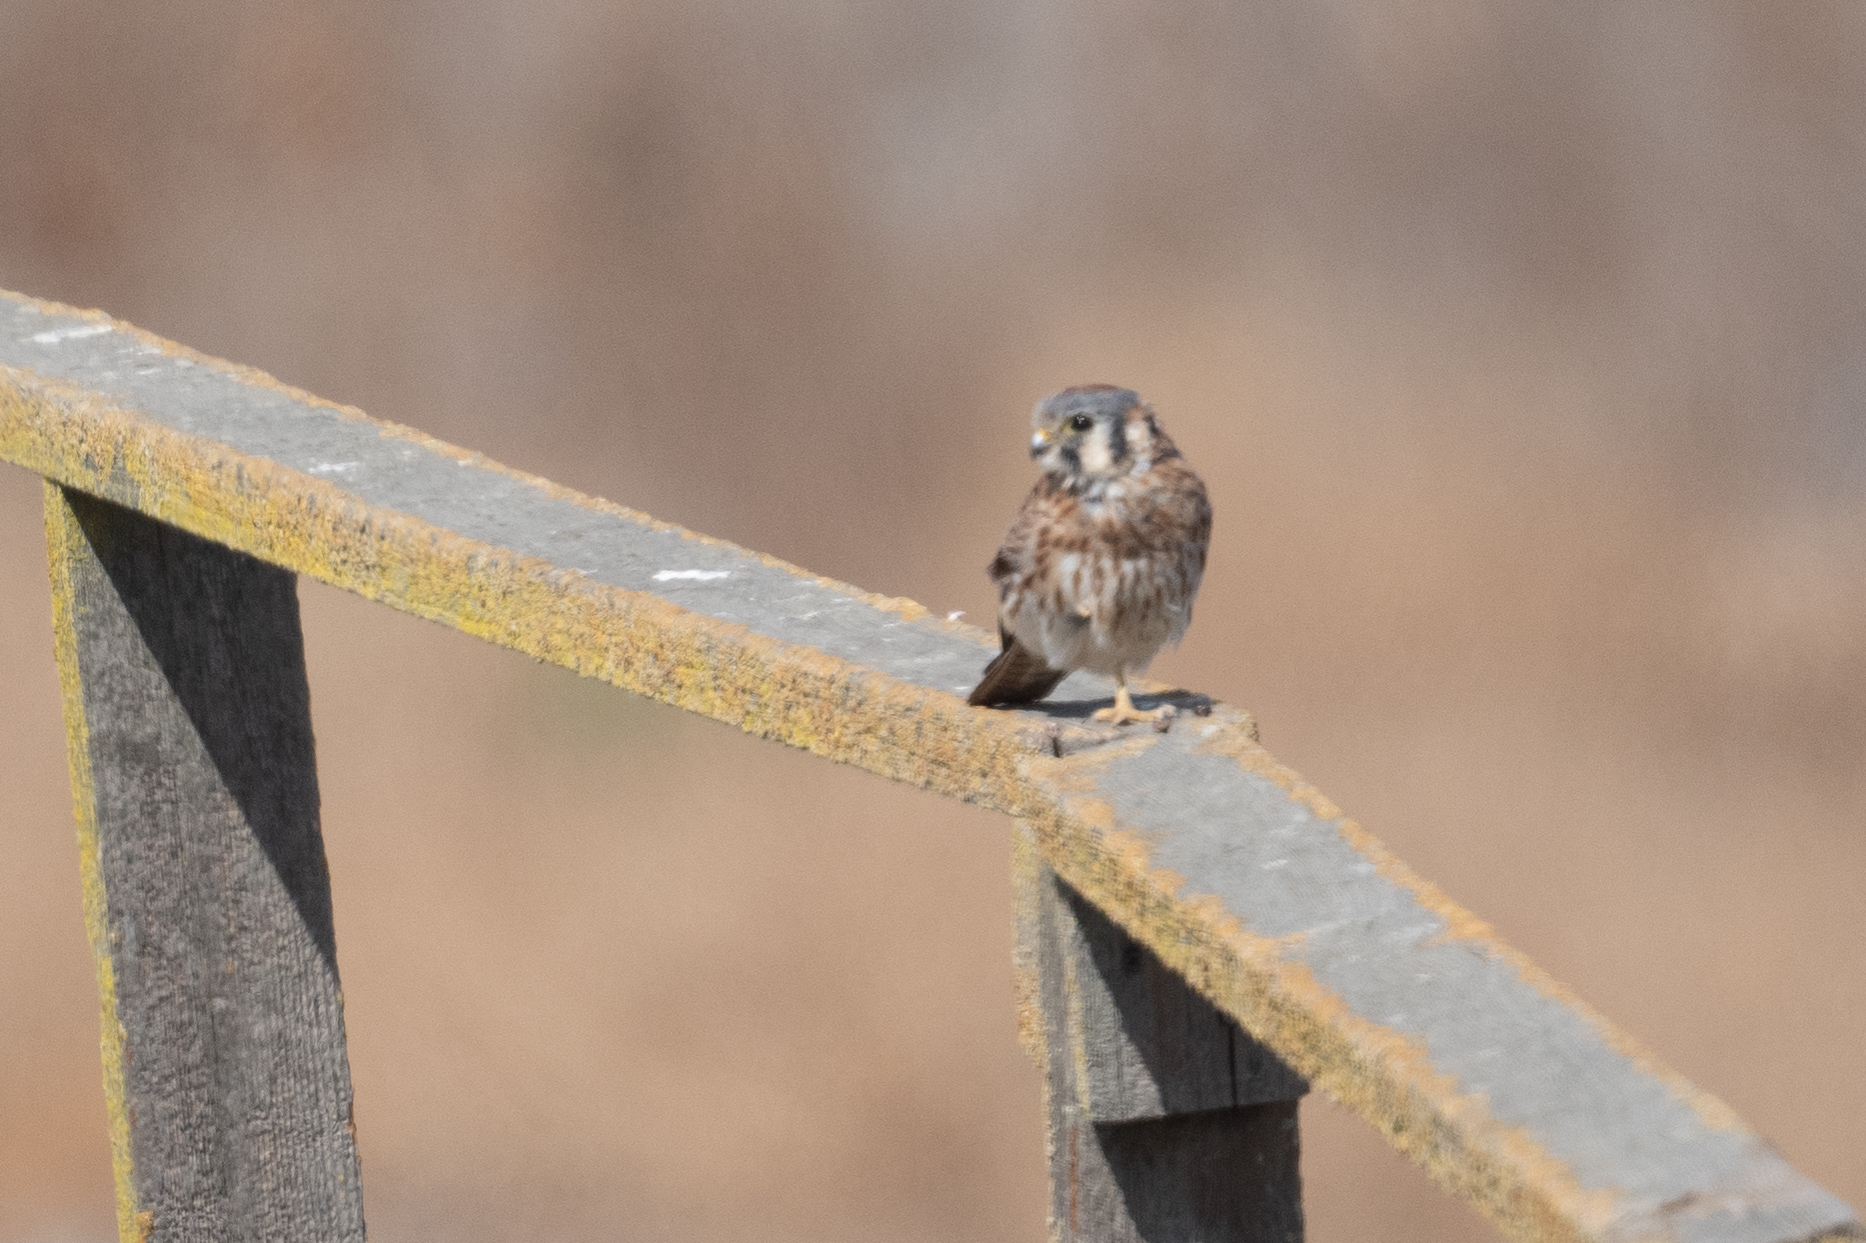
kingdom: Animalia
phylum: Chordata
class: Aves
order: Falconiformes
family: Falconidae
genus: Falco
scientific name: Falco sparverius
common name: American kestrel
